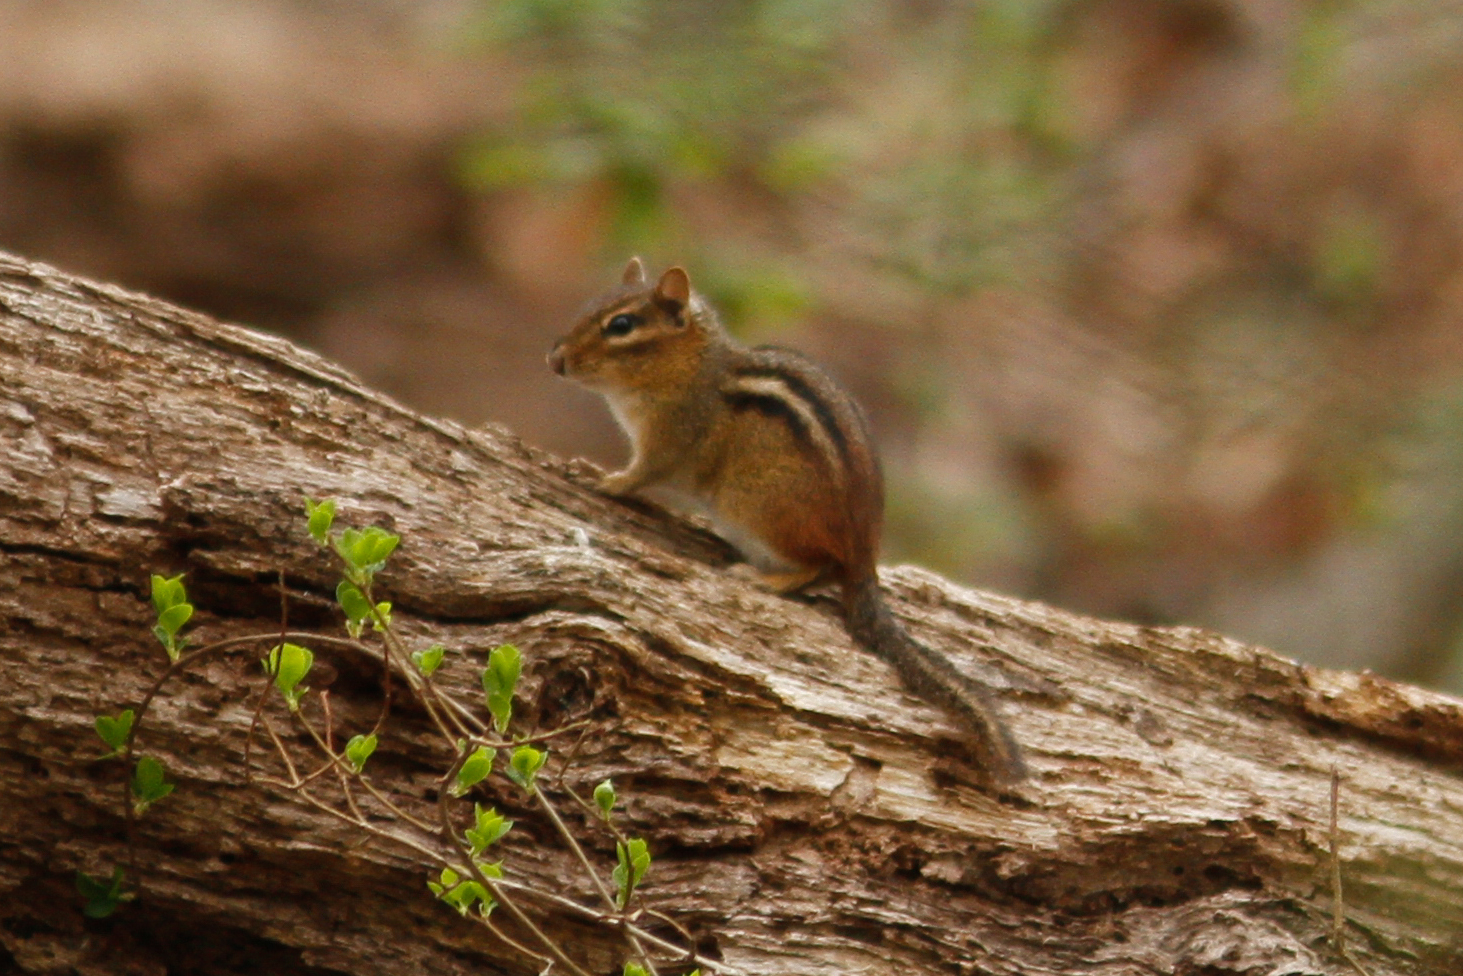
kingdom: Animalia
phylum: Chordata
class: Mammalia
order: Rodentia
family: Sciuridae
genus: Tamias
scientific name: Tamias striatus
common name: Eastern chipmunk
